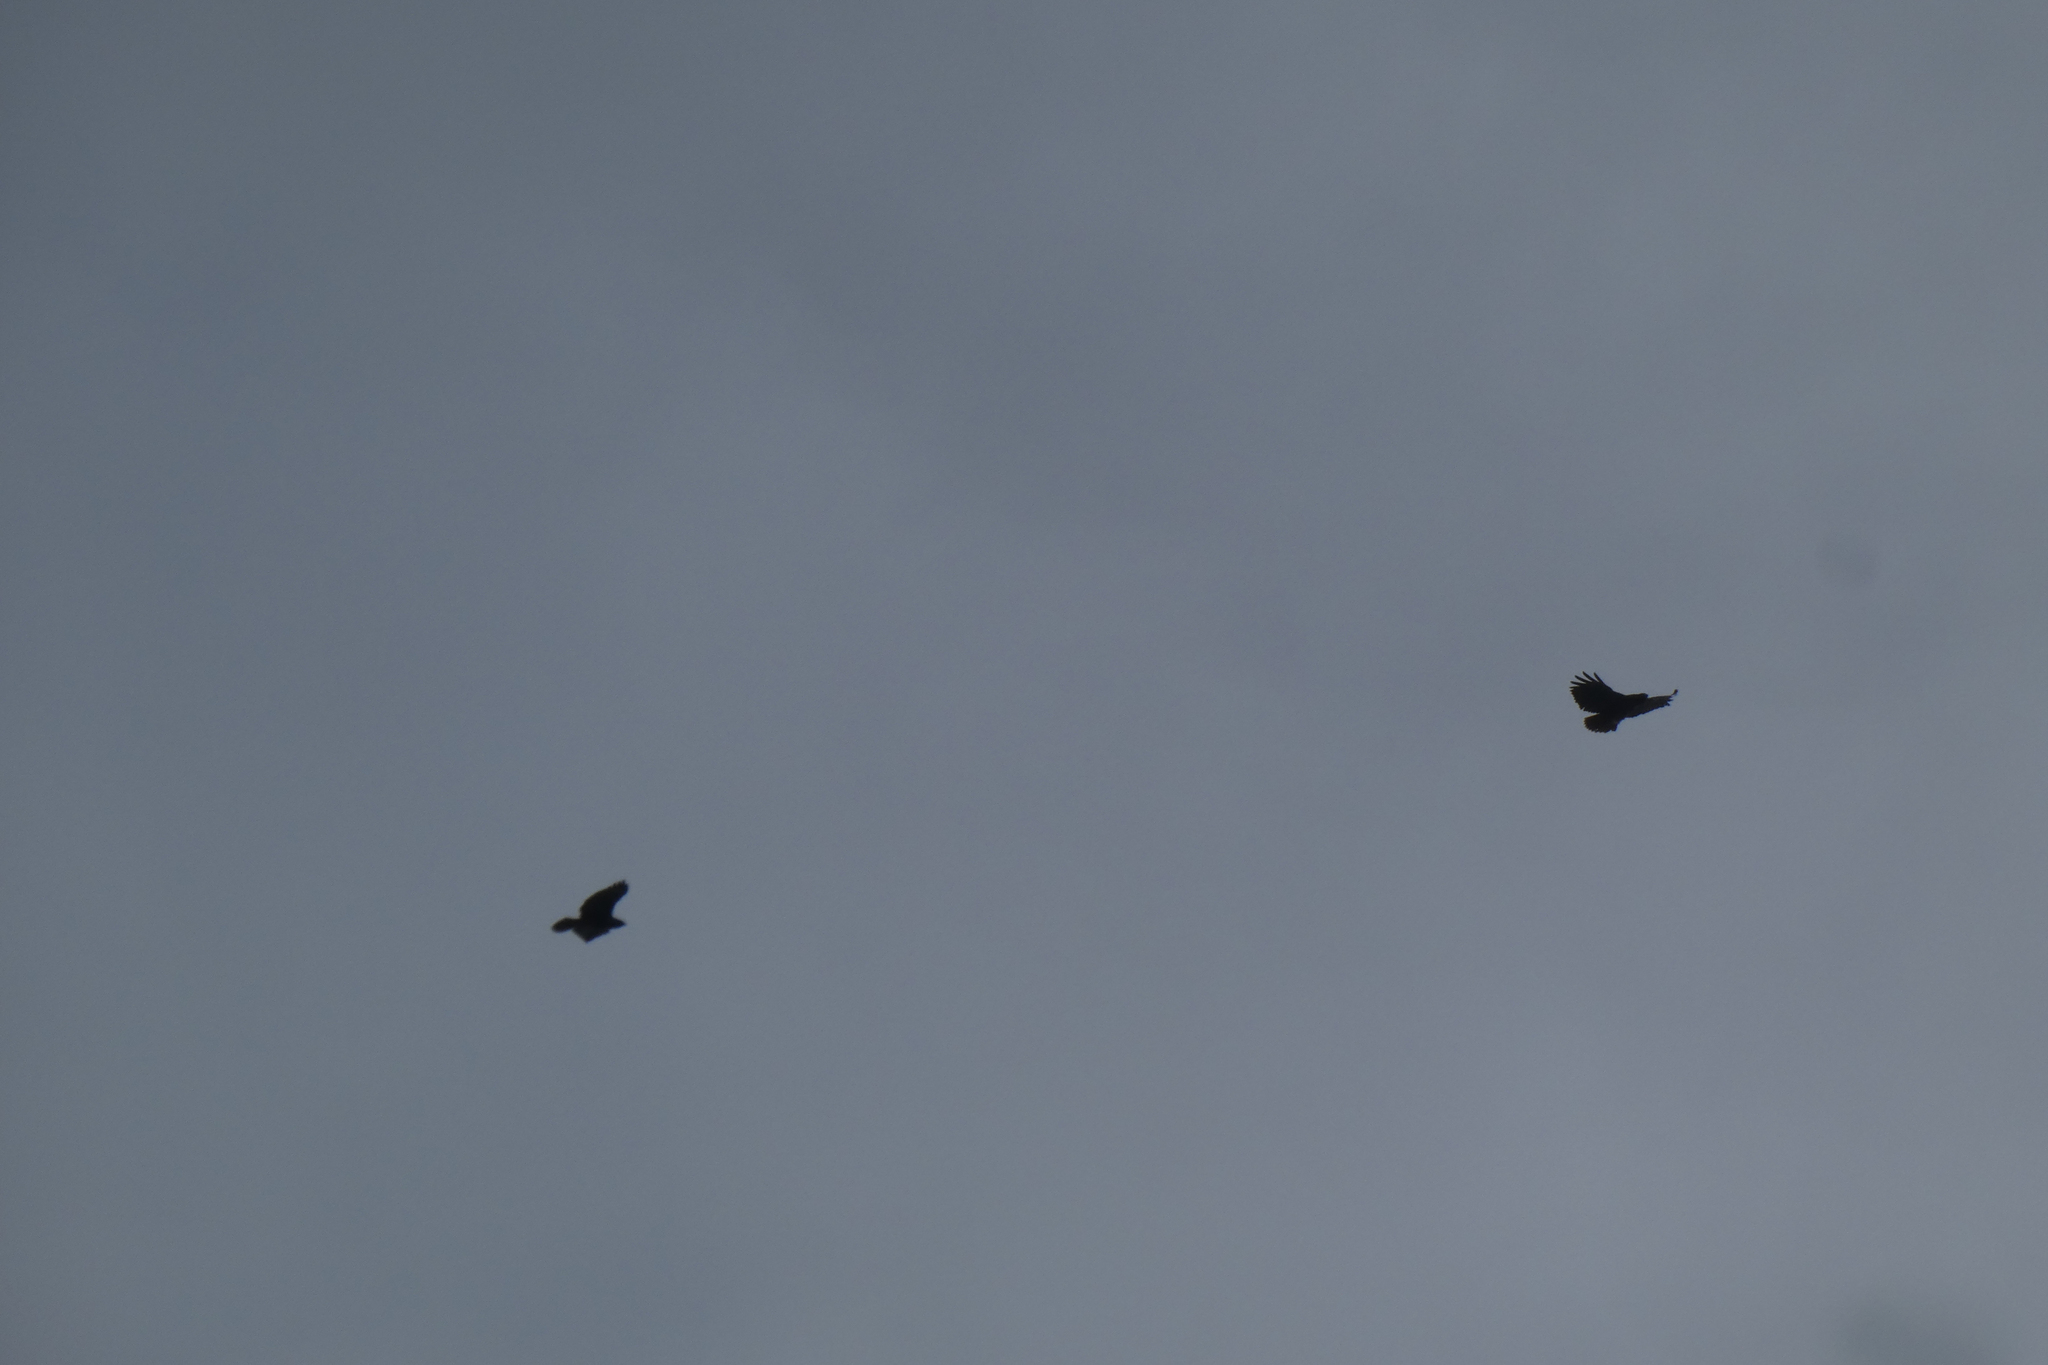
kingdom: Animalia
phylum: Chordata
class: Aves
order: Accipitriformes
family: Accipitridae
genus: Buteo
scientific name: Buteo jamaicensis
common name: Red-tailed hawk
